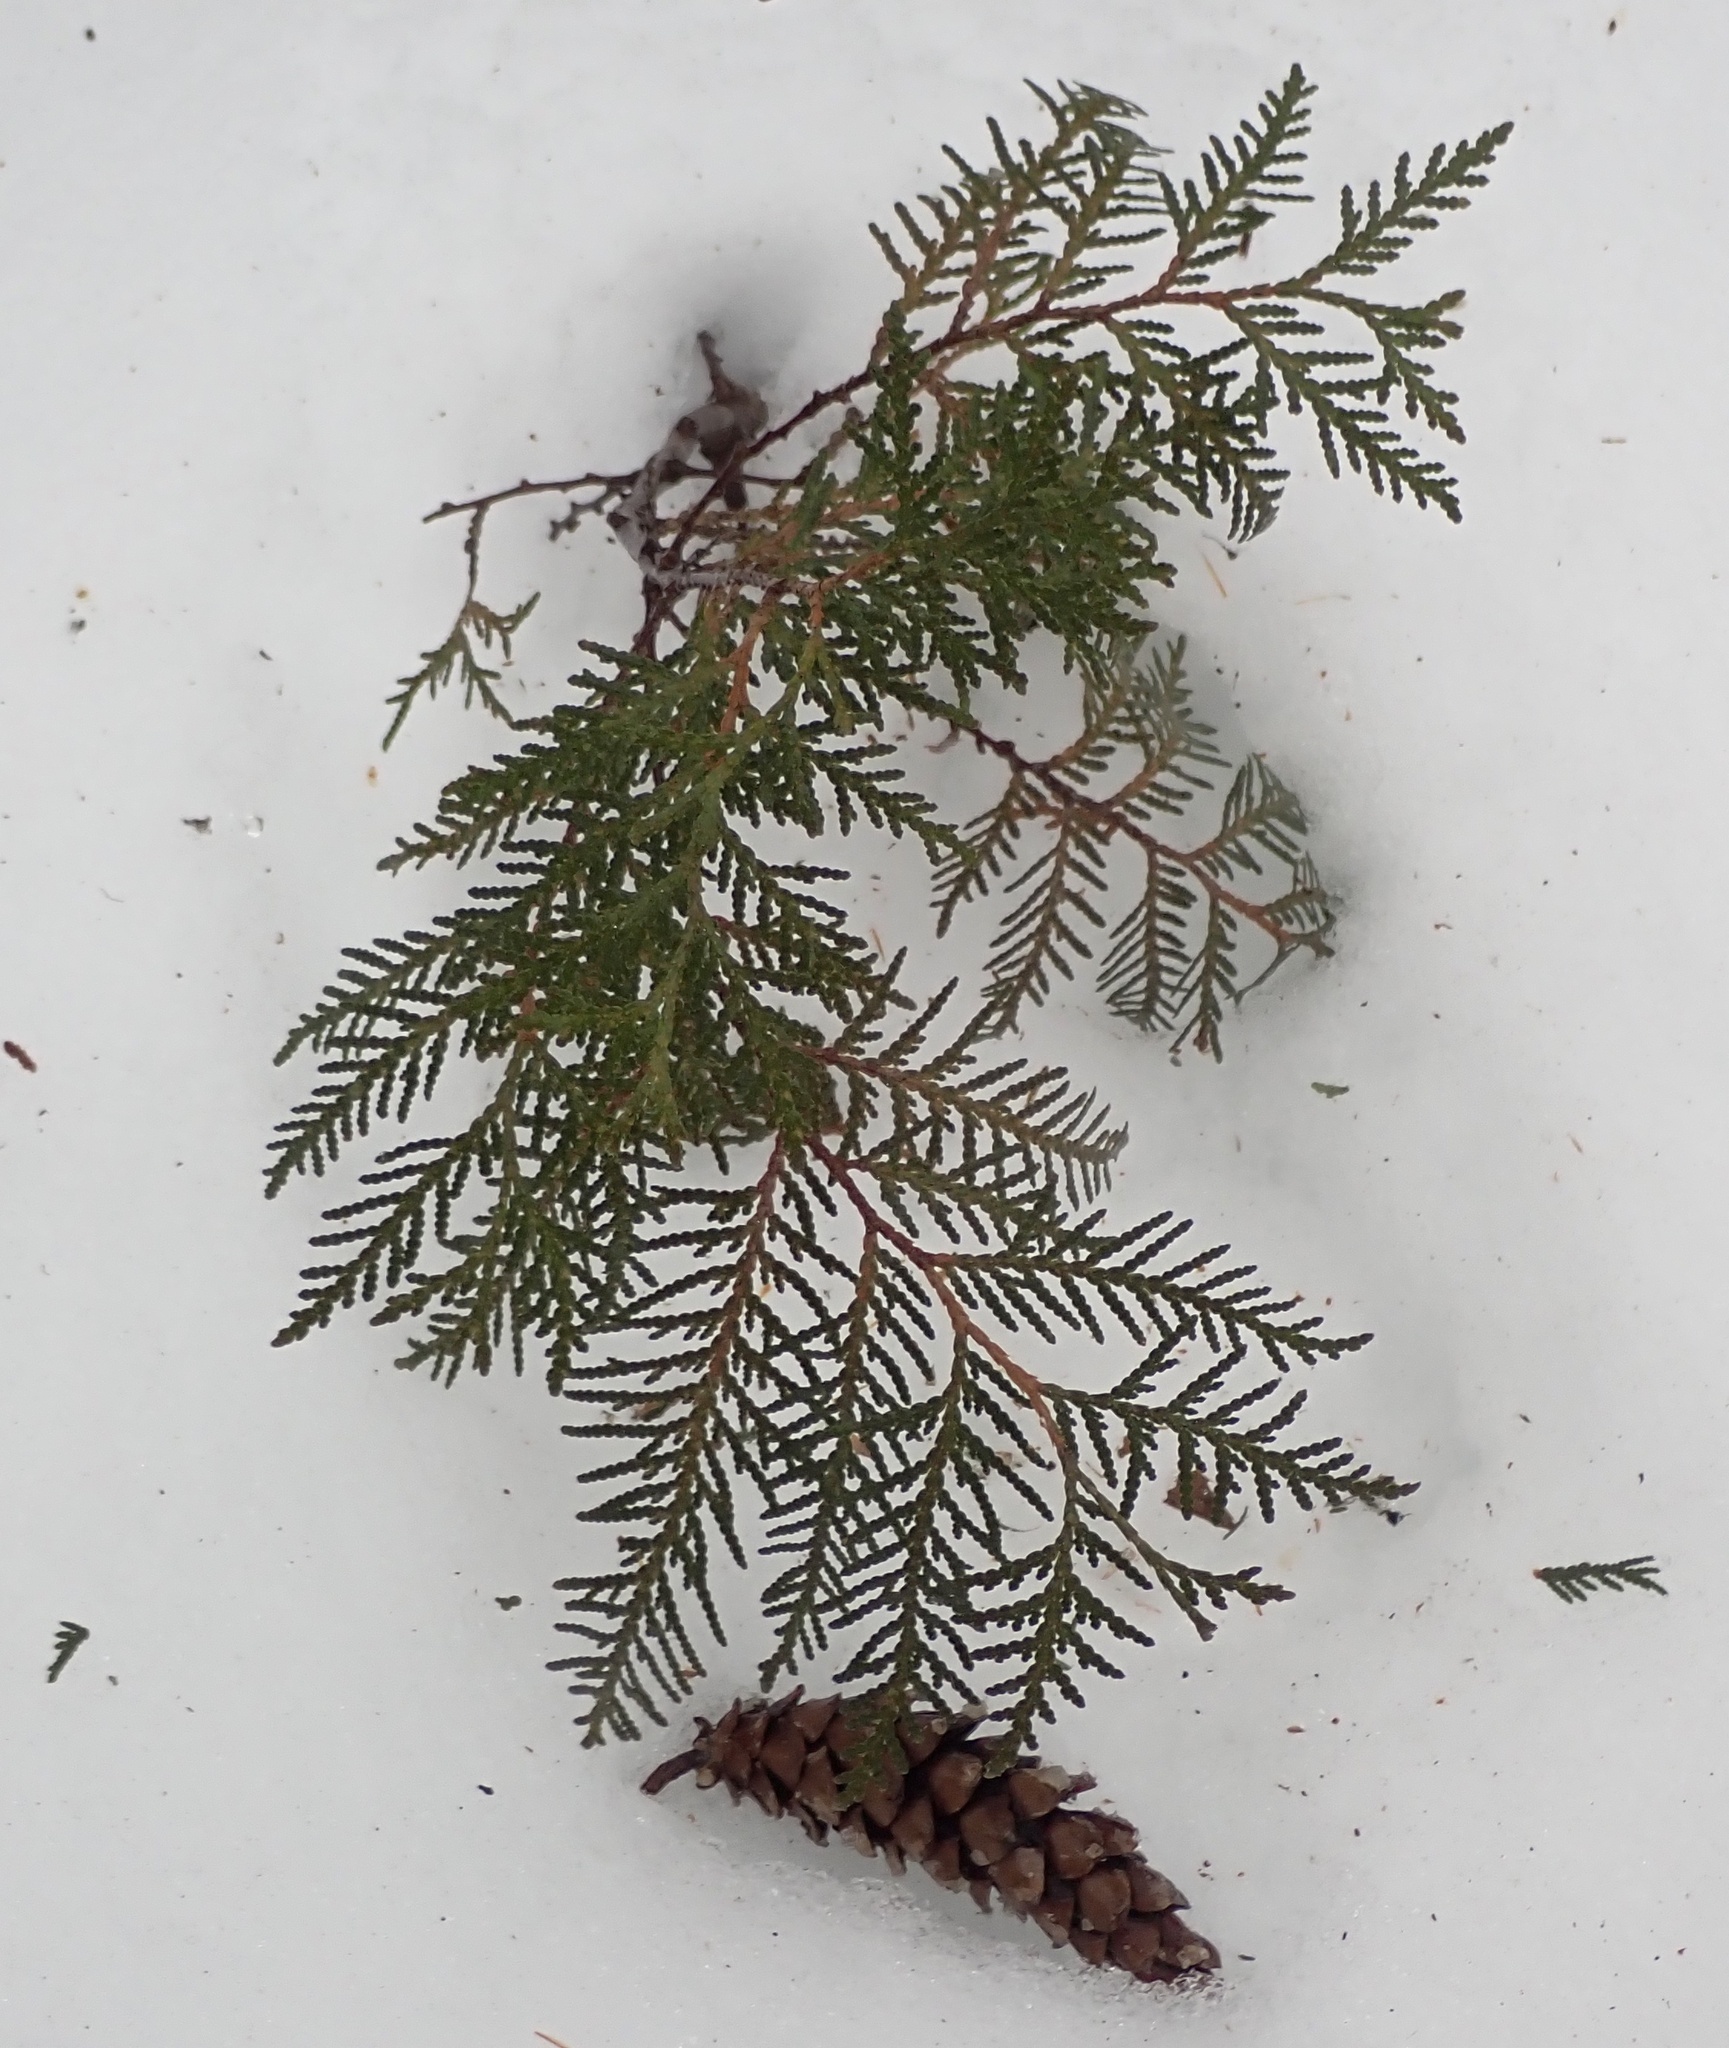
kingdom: Plantae
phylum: Tracheophyta
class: Pinopsida
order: Pinales
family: Cupressaceae
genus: Thuja
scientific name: Thuja occidentalis
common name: Northern white-cedar
